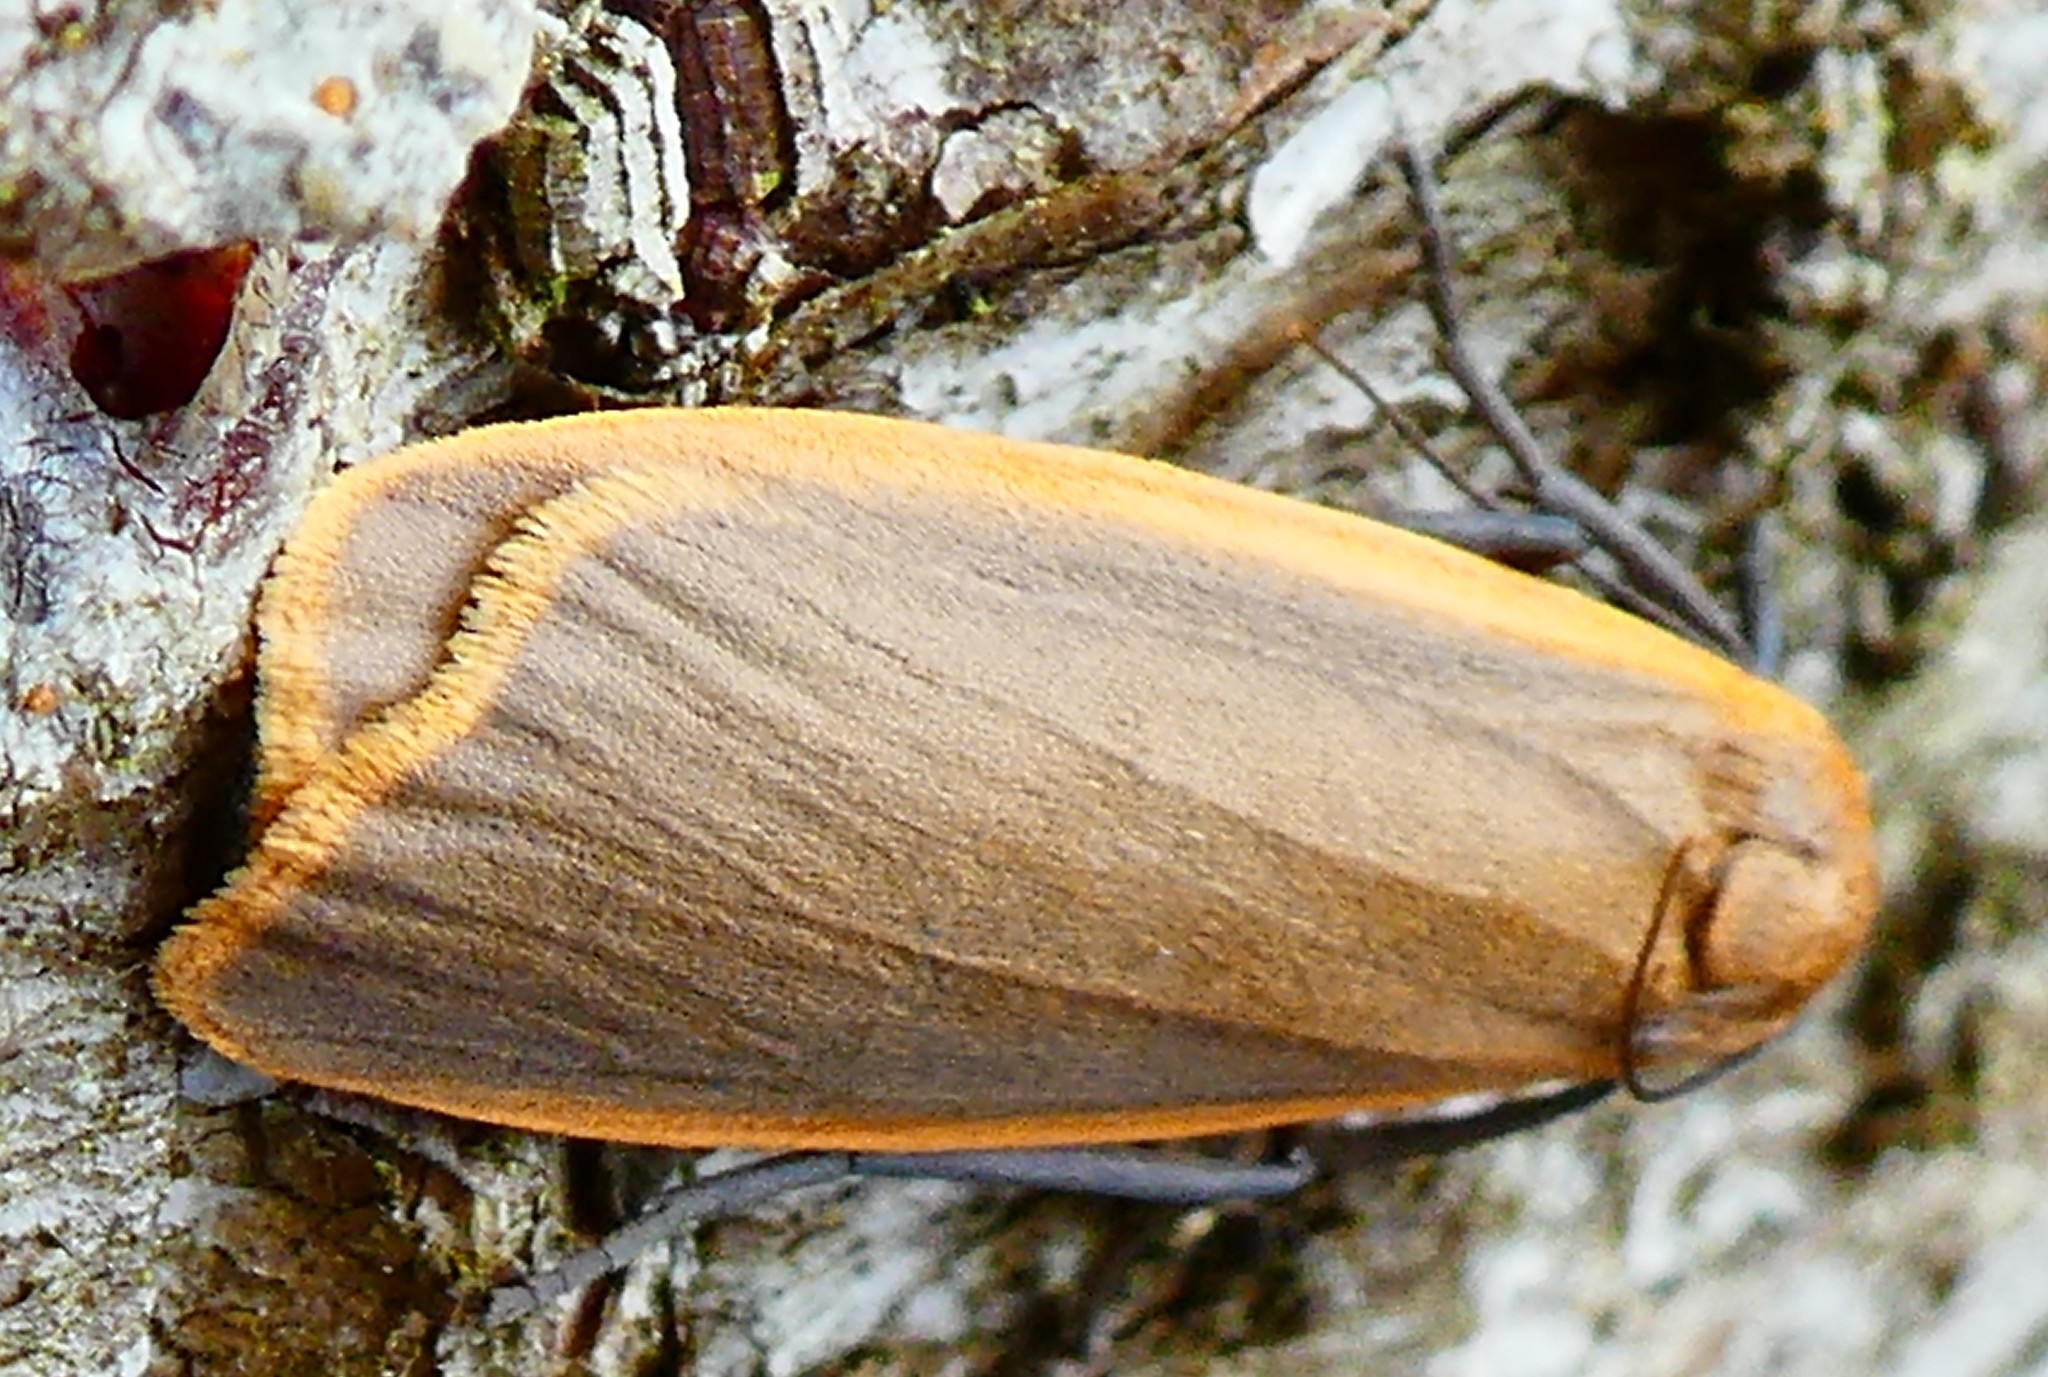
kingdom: Animalia
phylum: Arthropoda
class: Insecta
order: Lepidoptera
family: Erebidae
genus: Katha
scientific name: Katha depressa
